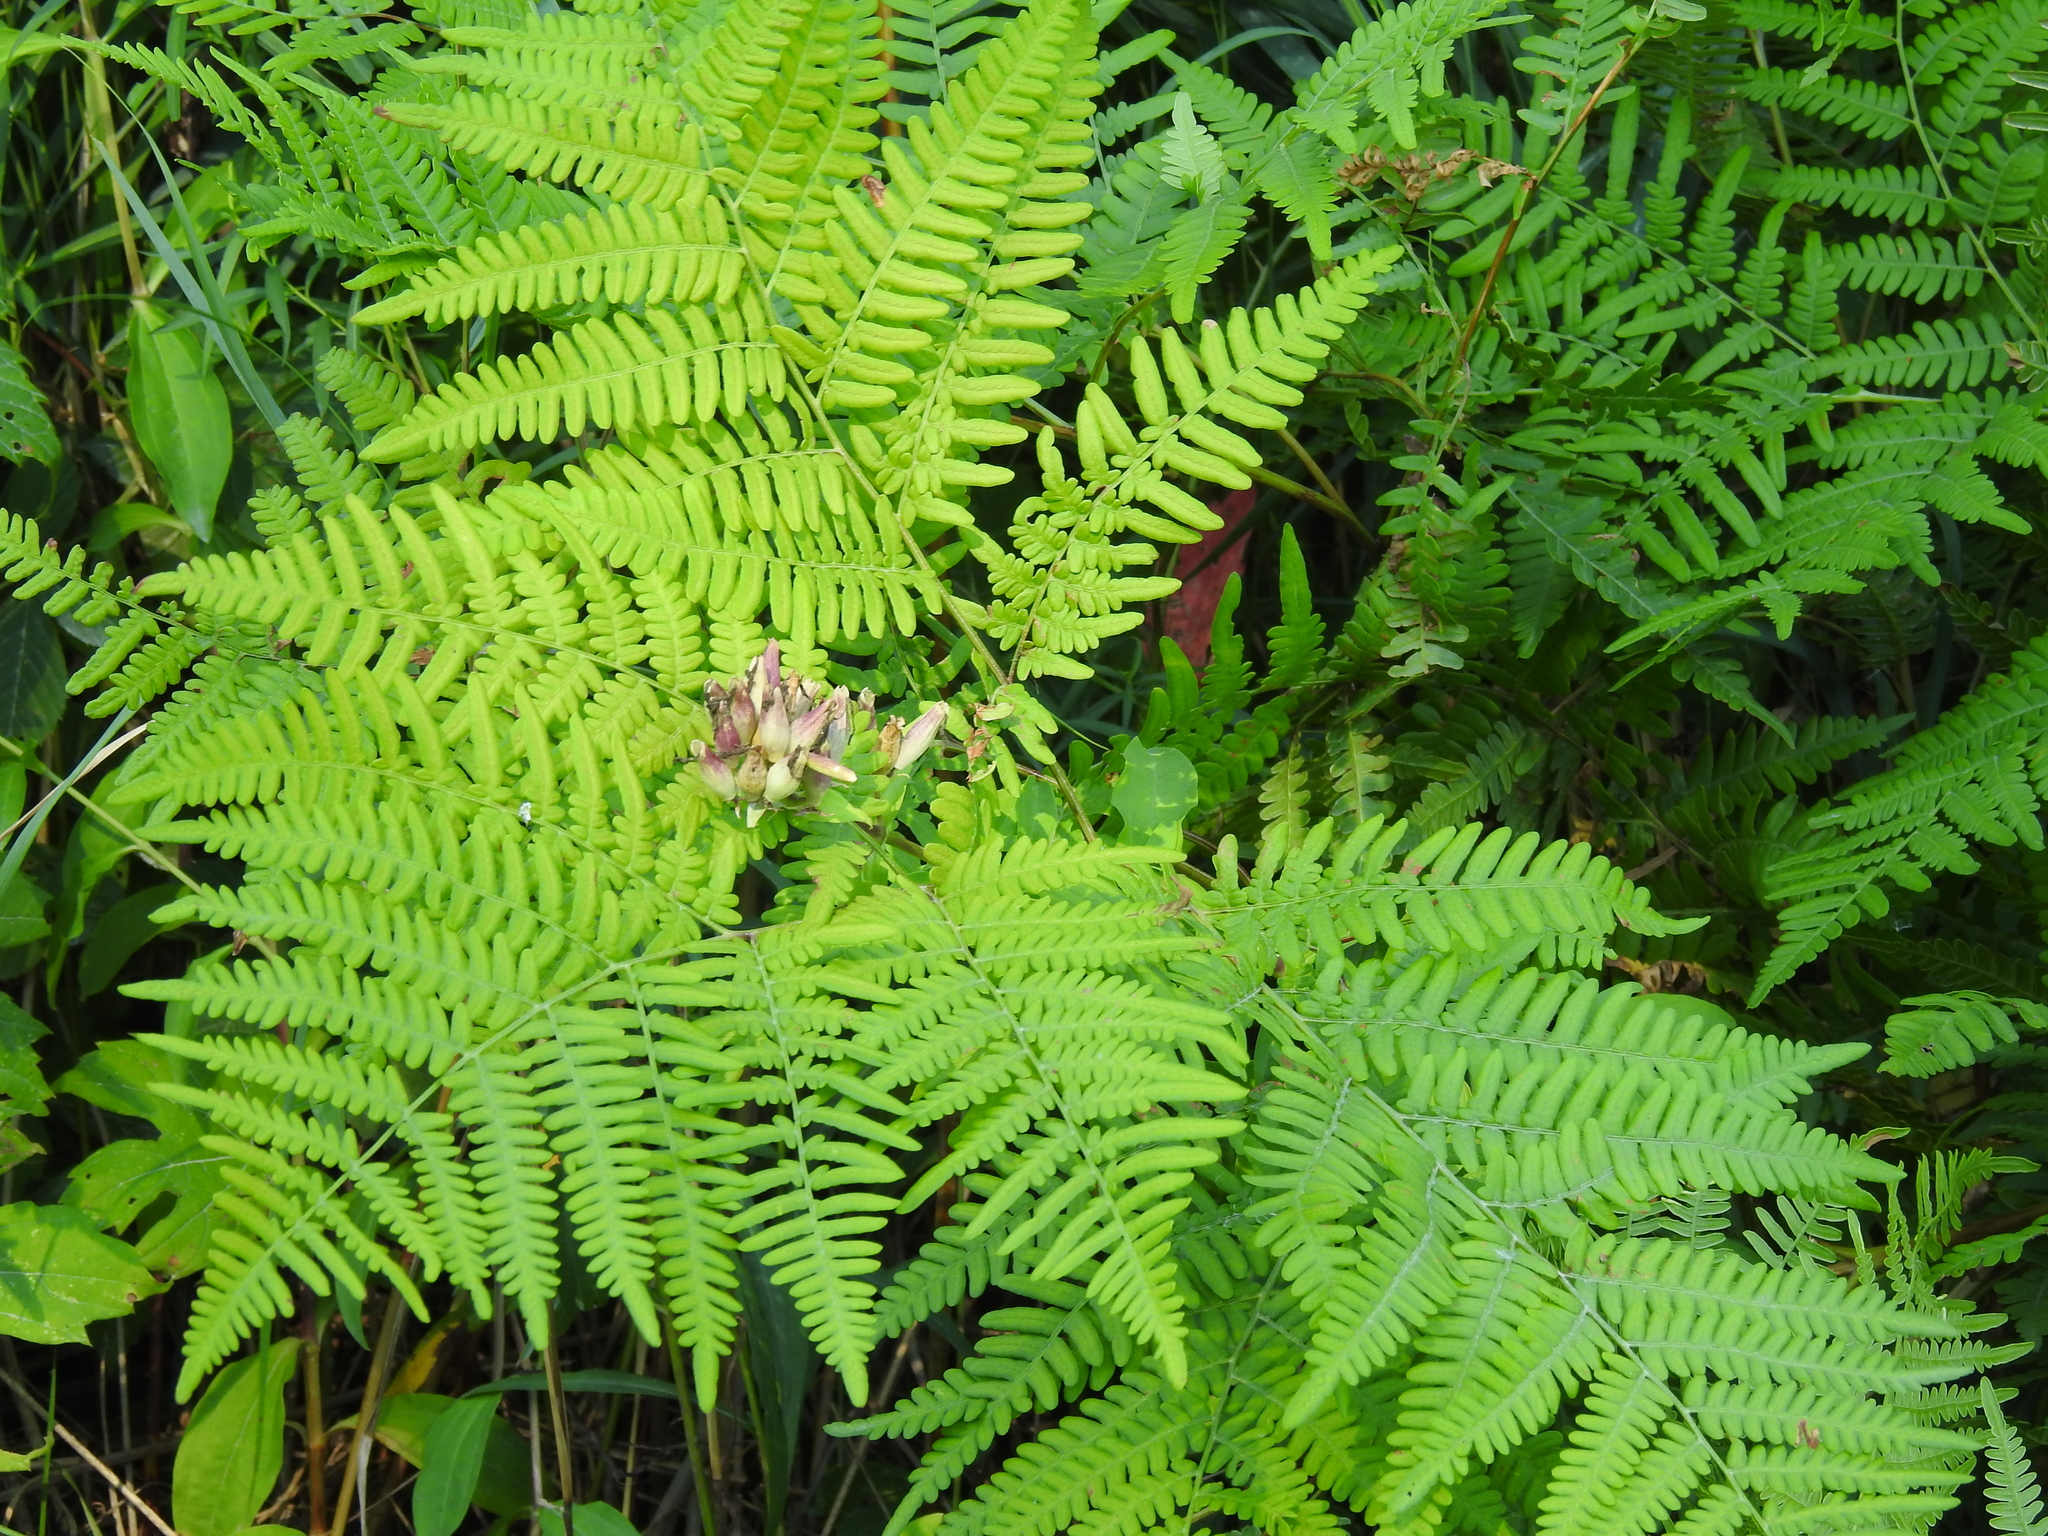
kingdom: Plantae
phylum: Tracheophyta
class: Polypodiopsida
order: Polypodiales
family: Dennstaedtiaceae
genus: Pteridium
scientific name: Pteridium aquilinum
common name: Bracken
